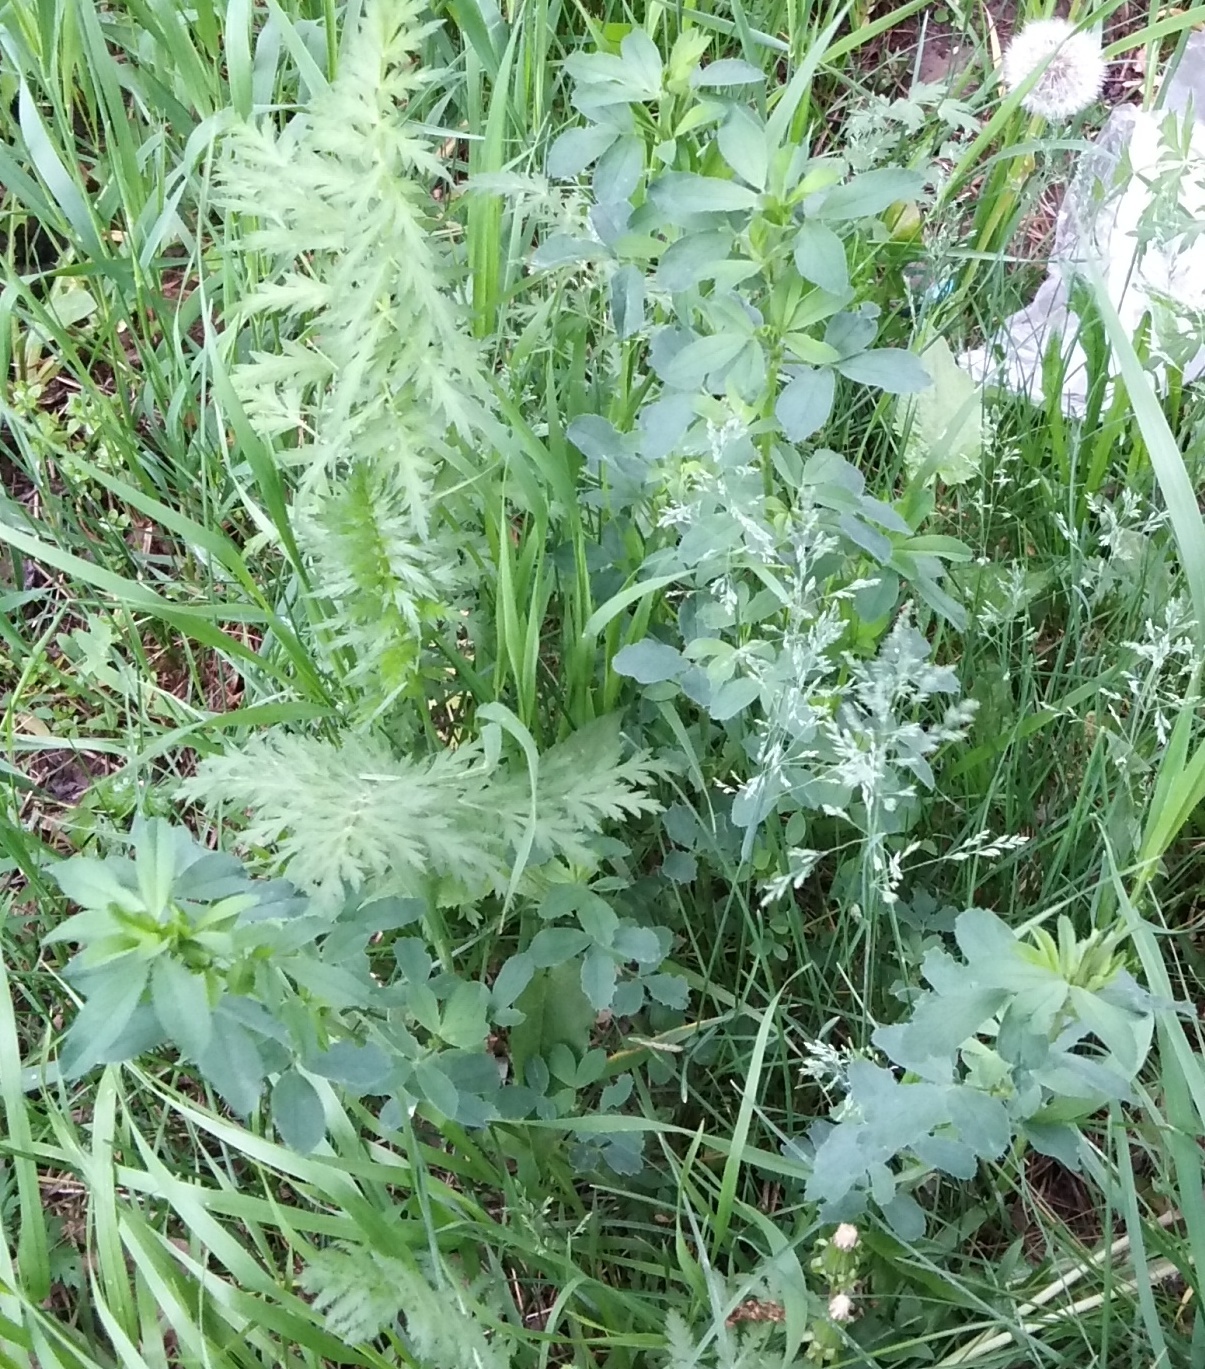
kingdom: Plantae
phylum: Tracheophyta
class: Magnoliopsida
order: Fabales
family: Fabaceae
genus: Melilotus
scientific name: Melilotus
